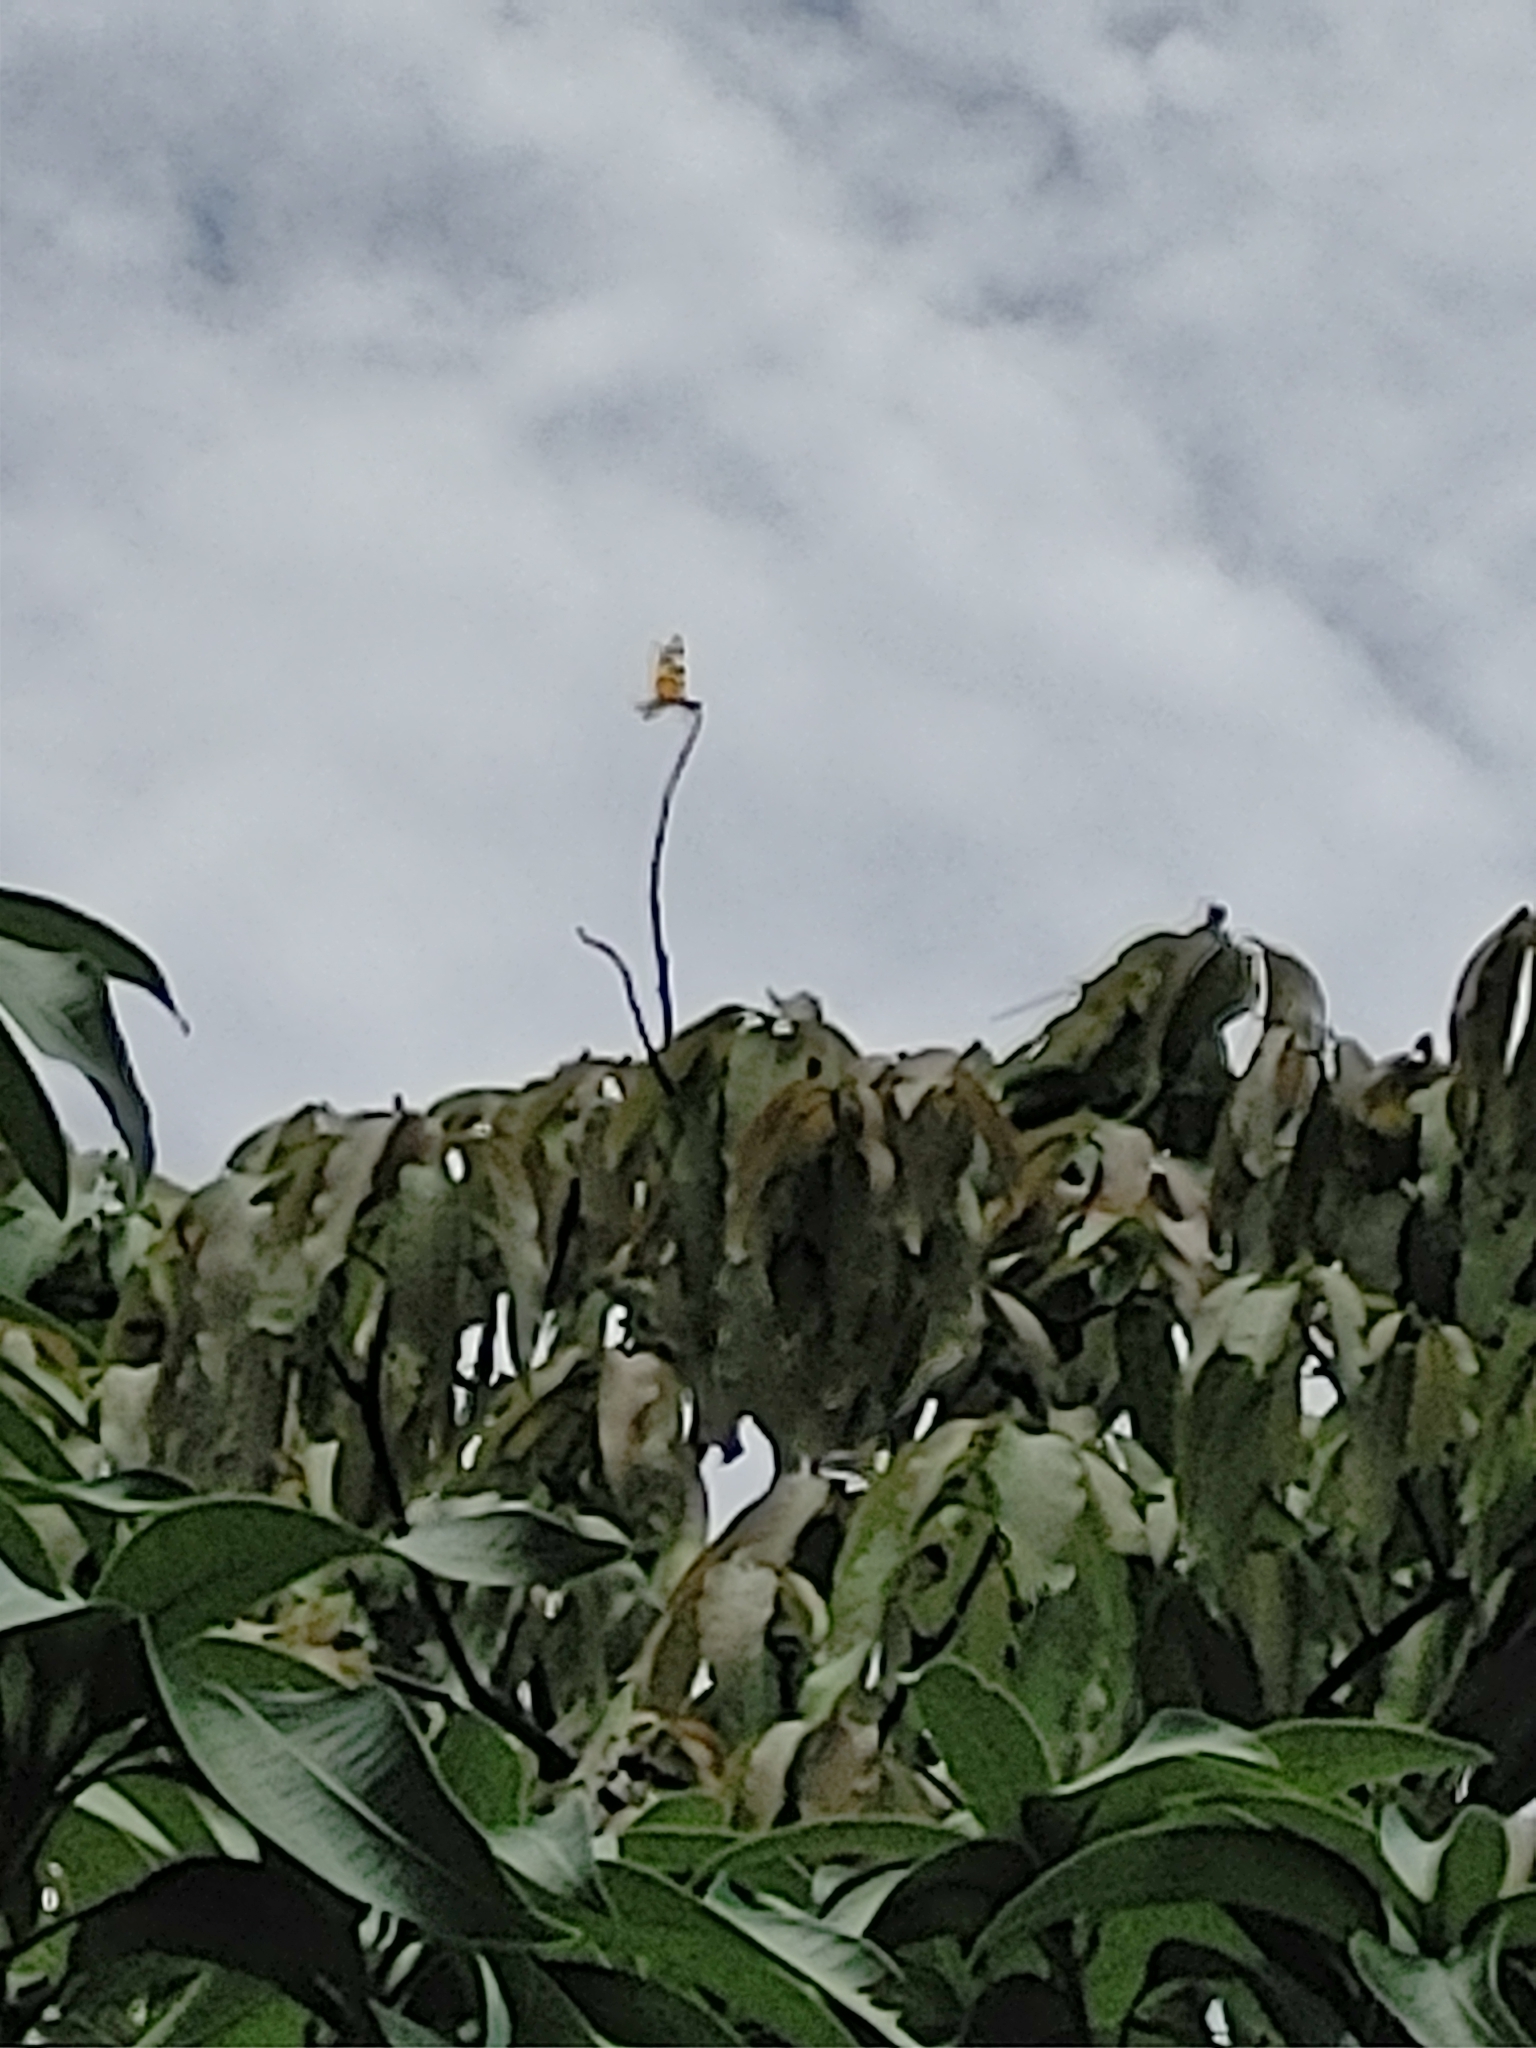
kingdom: Animalia
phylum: Arthropoda
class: Insecta
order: Odonata
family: Libellulidae
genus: Celithemis
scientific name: Celithemis eponina
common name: Halloween pennant
